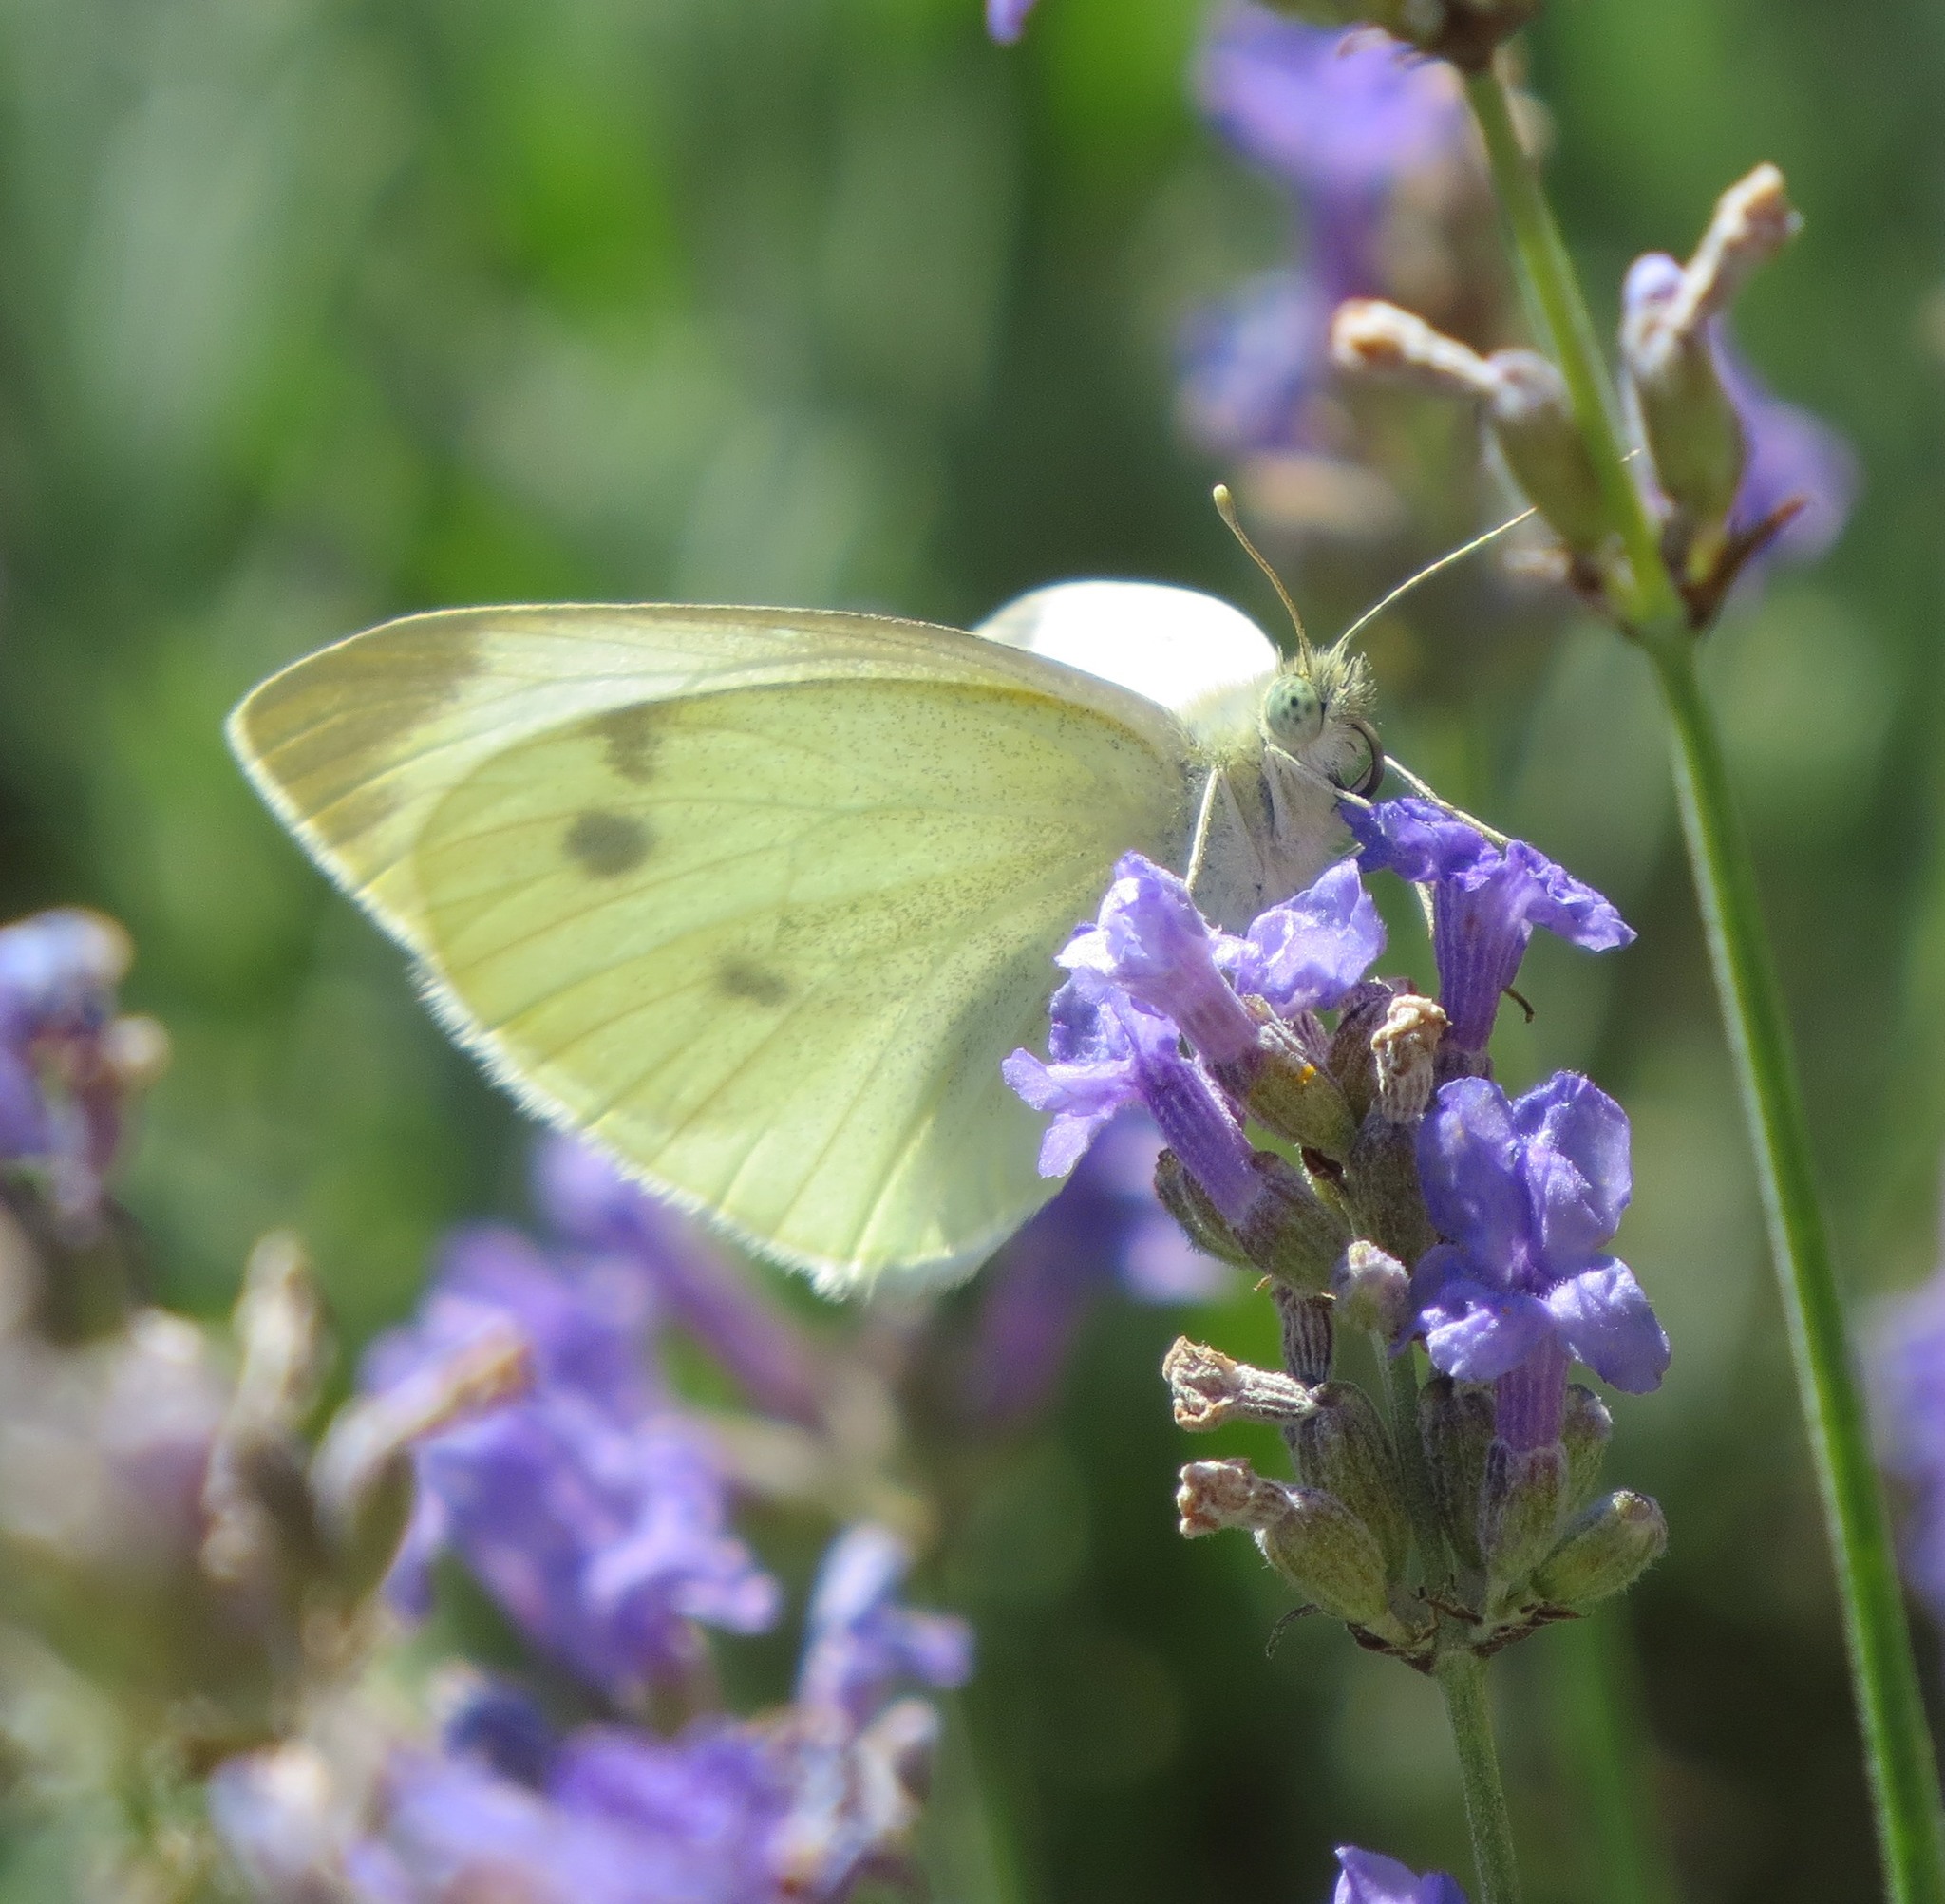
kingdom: Animalia
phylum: Arthropoda
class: Insecta
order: Lepidoptera
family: Pieridae
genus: Pieris
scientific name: Pieris rapae
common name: Small white
